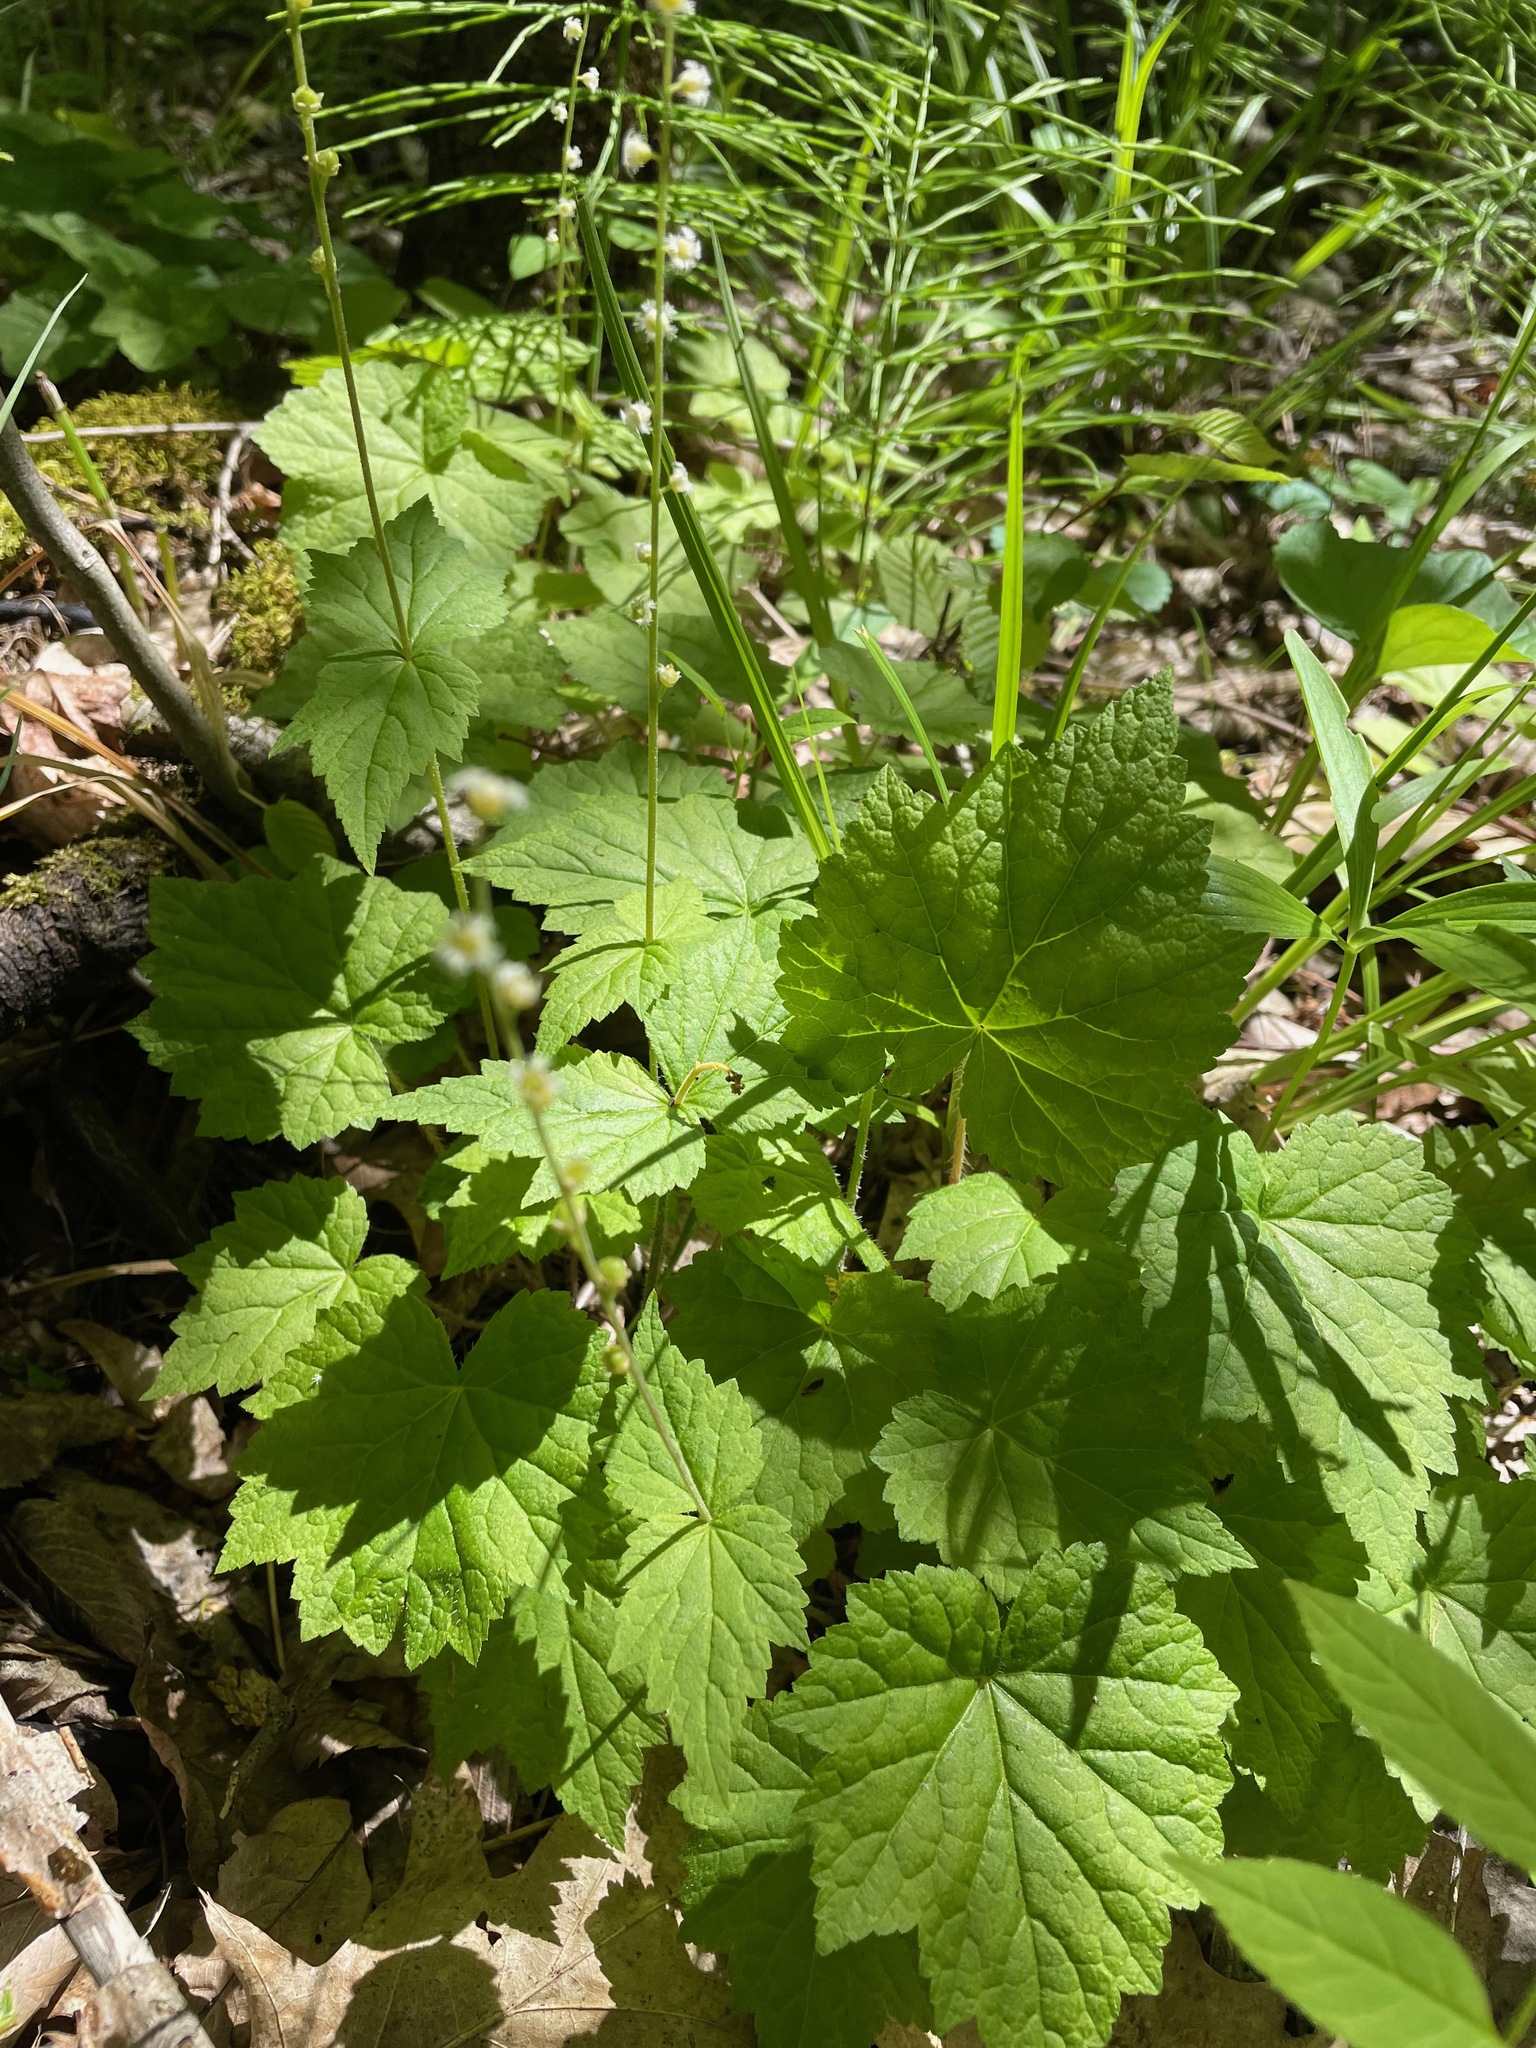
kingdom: Plantae
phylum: Tracheophyta
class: Magnoliopsida
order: Saxifragales
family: Saxifragaceae
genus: Mitella
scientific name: Mitella diphylla
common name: Coolwort
